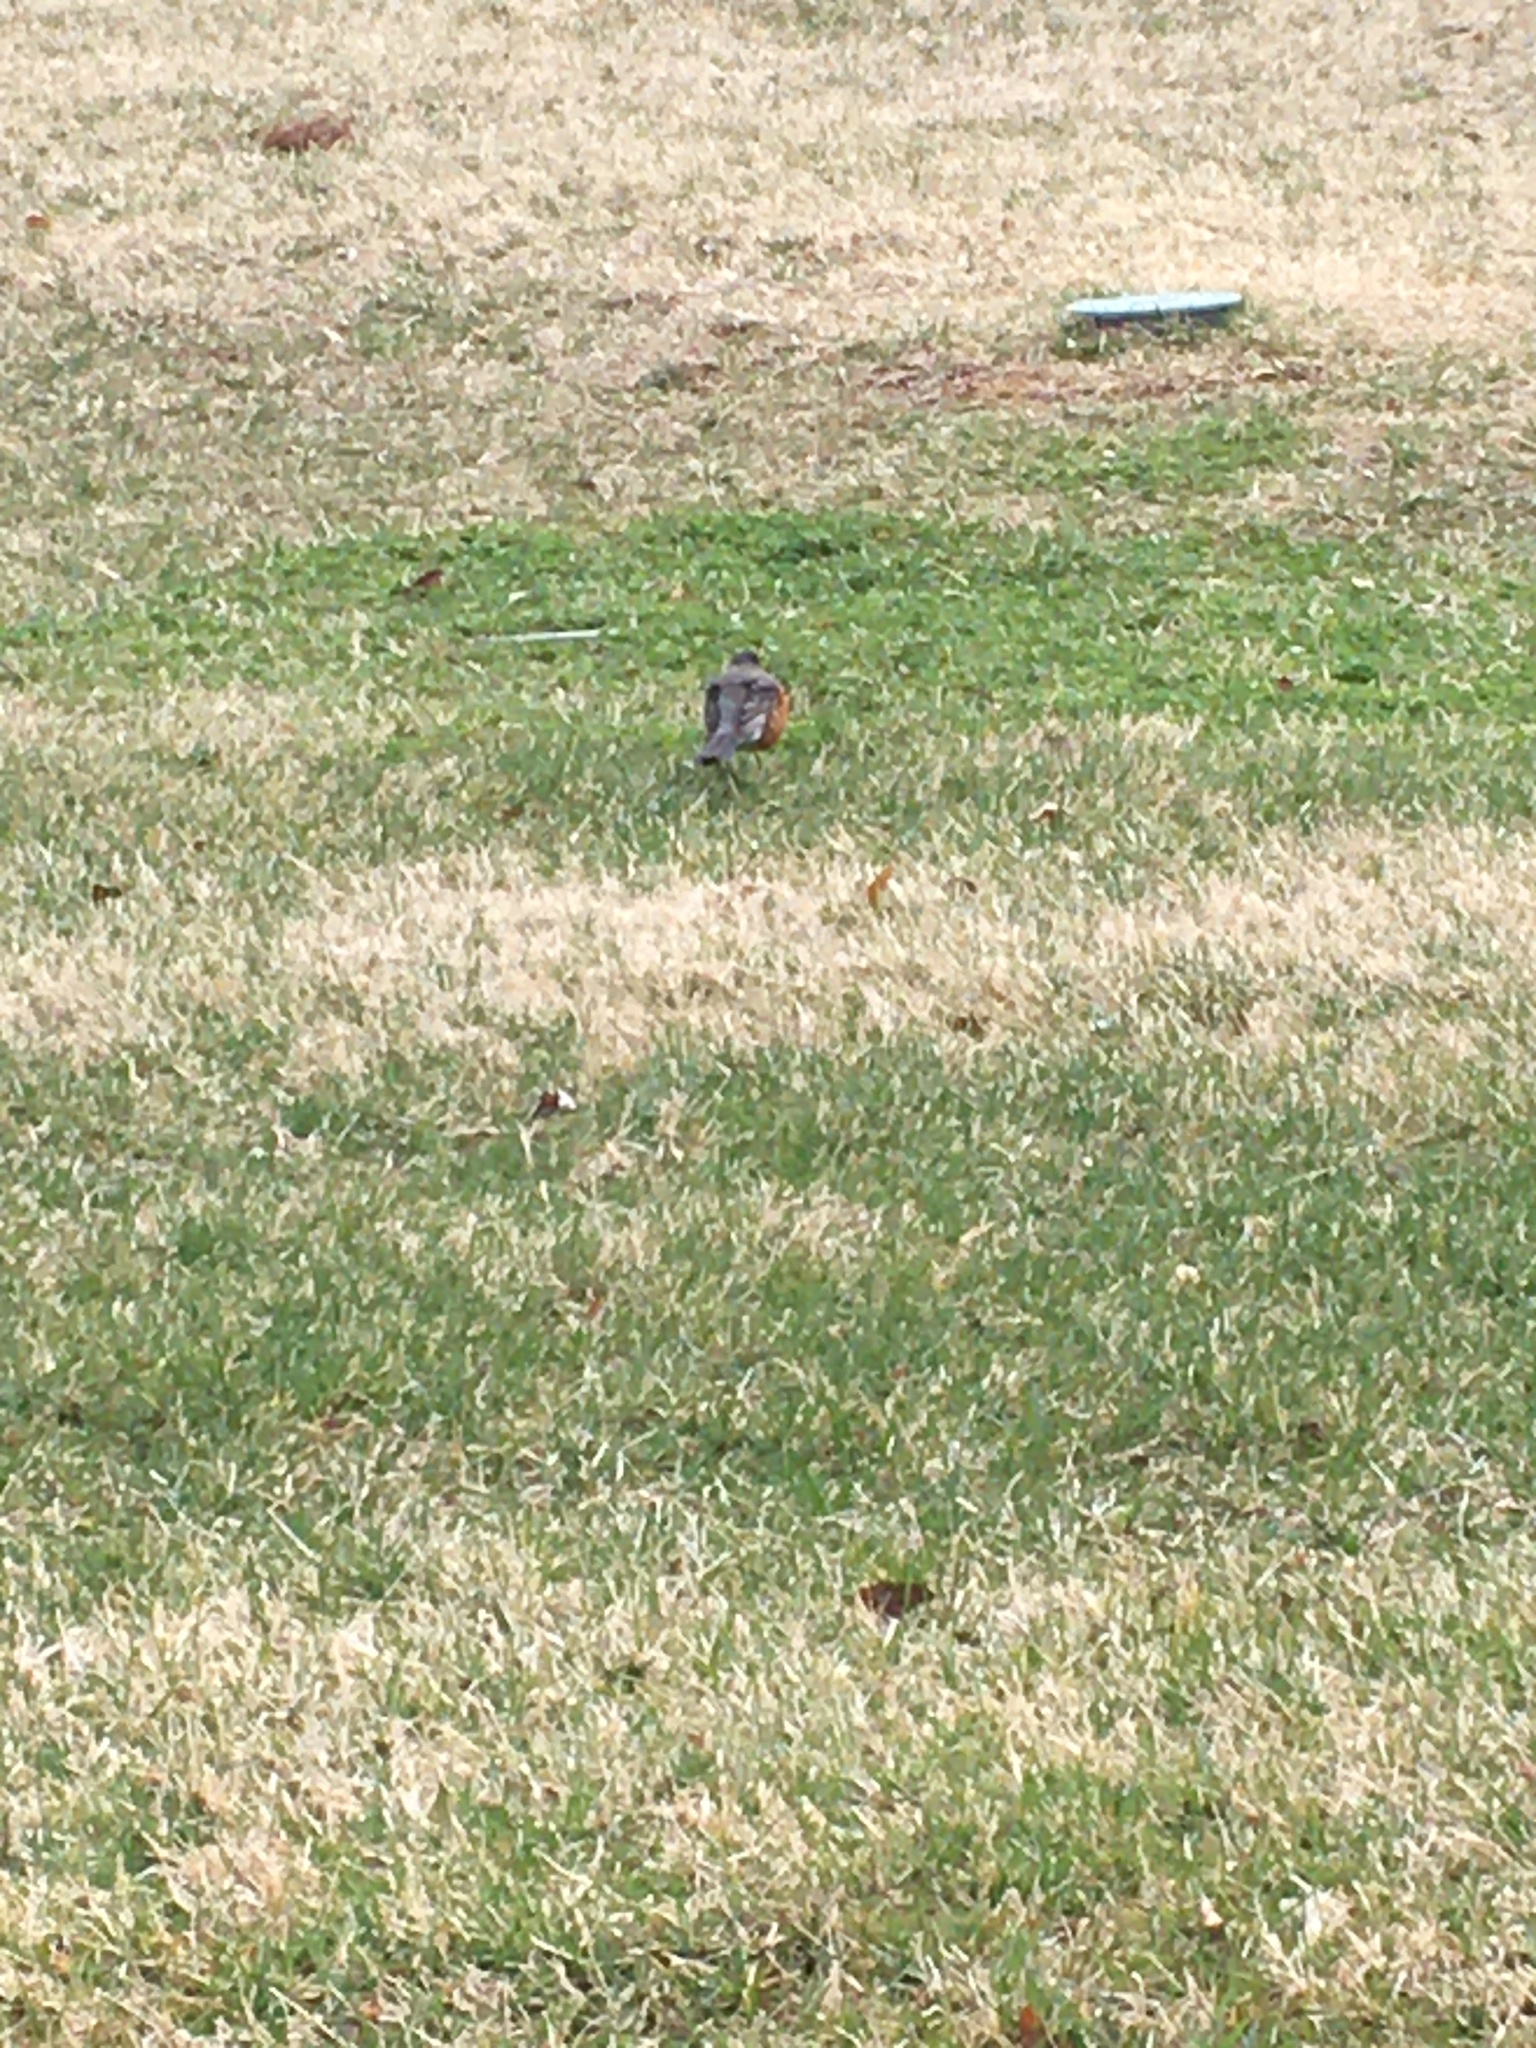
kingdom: Animalia
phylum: Chordata
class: Aves
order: Passeriformes
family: Turdidae
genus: Turdus
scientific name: Turdus migratorius
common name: American robin
